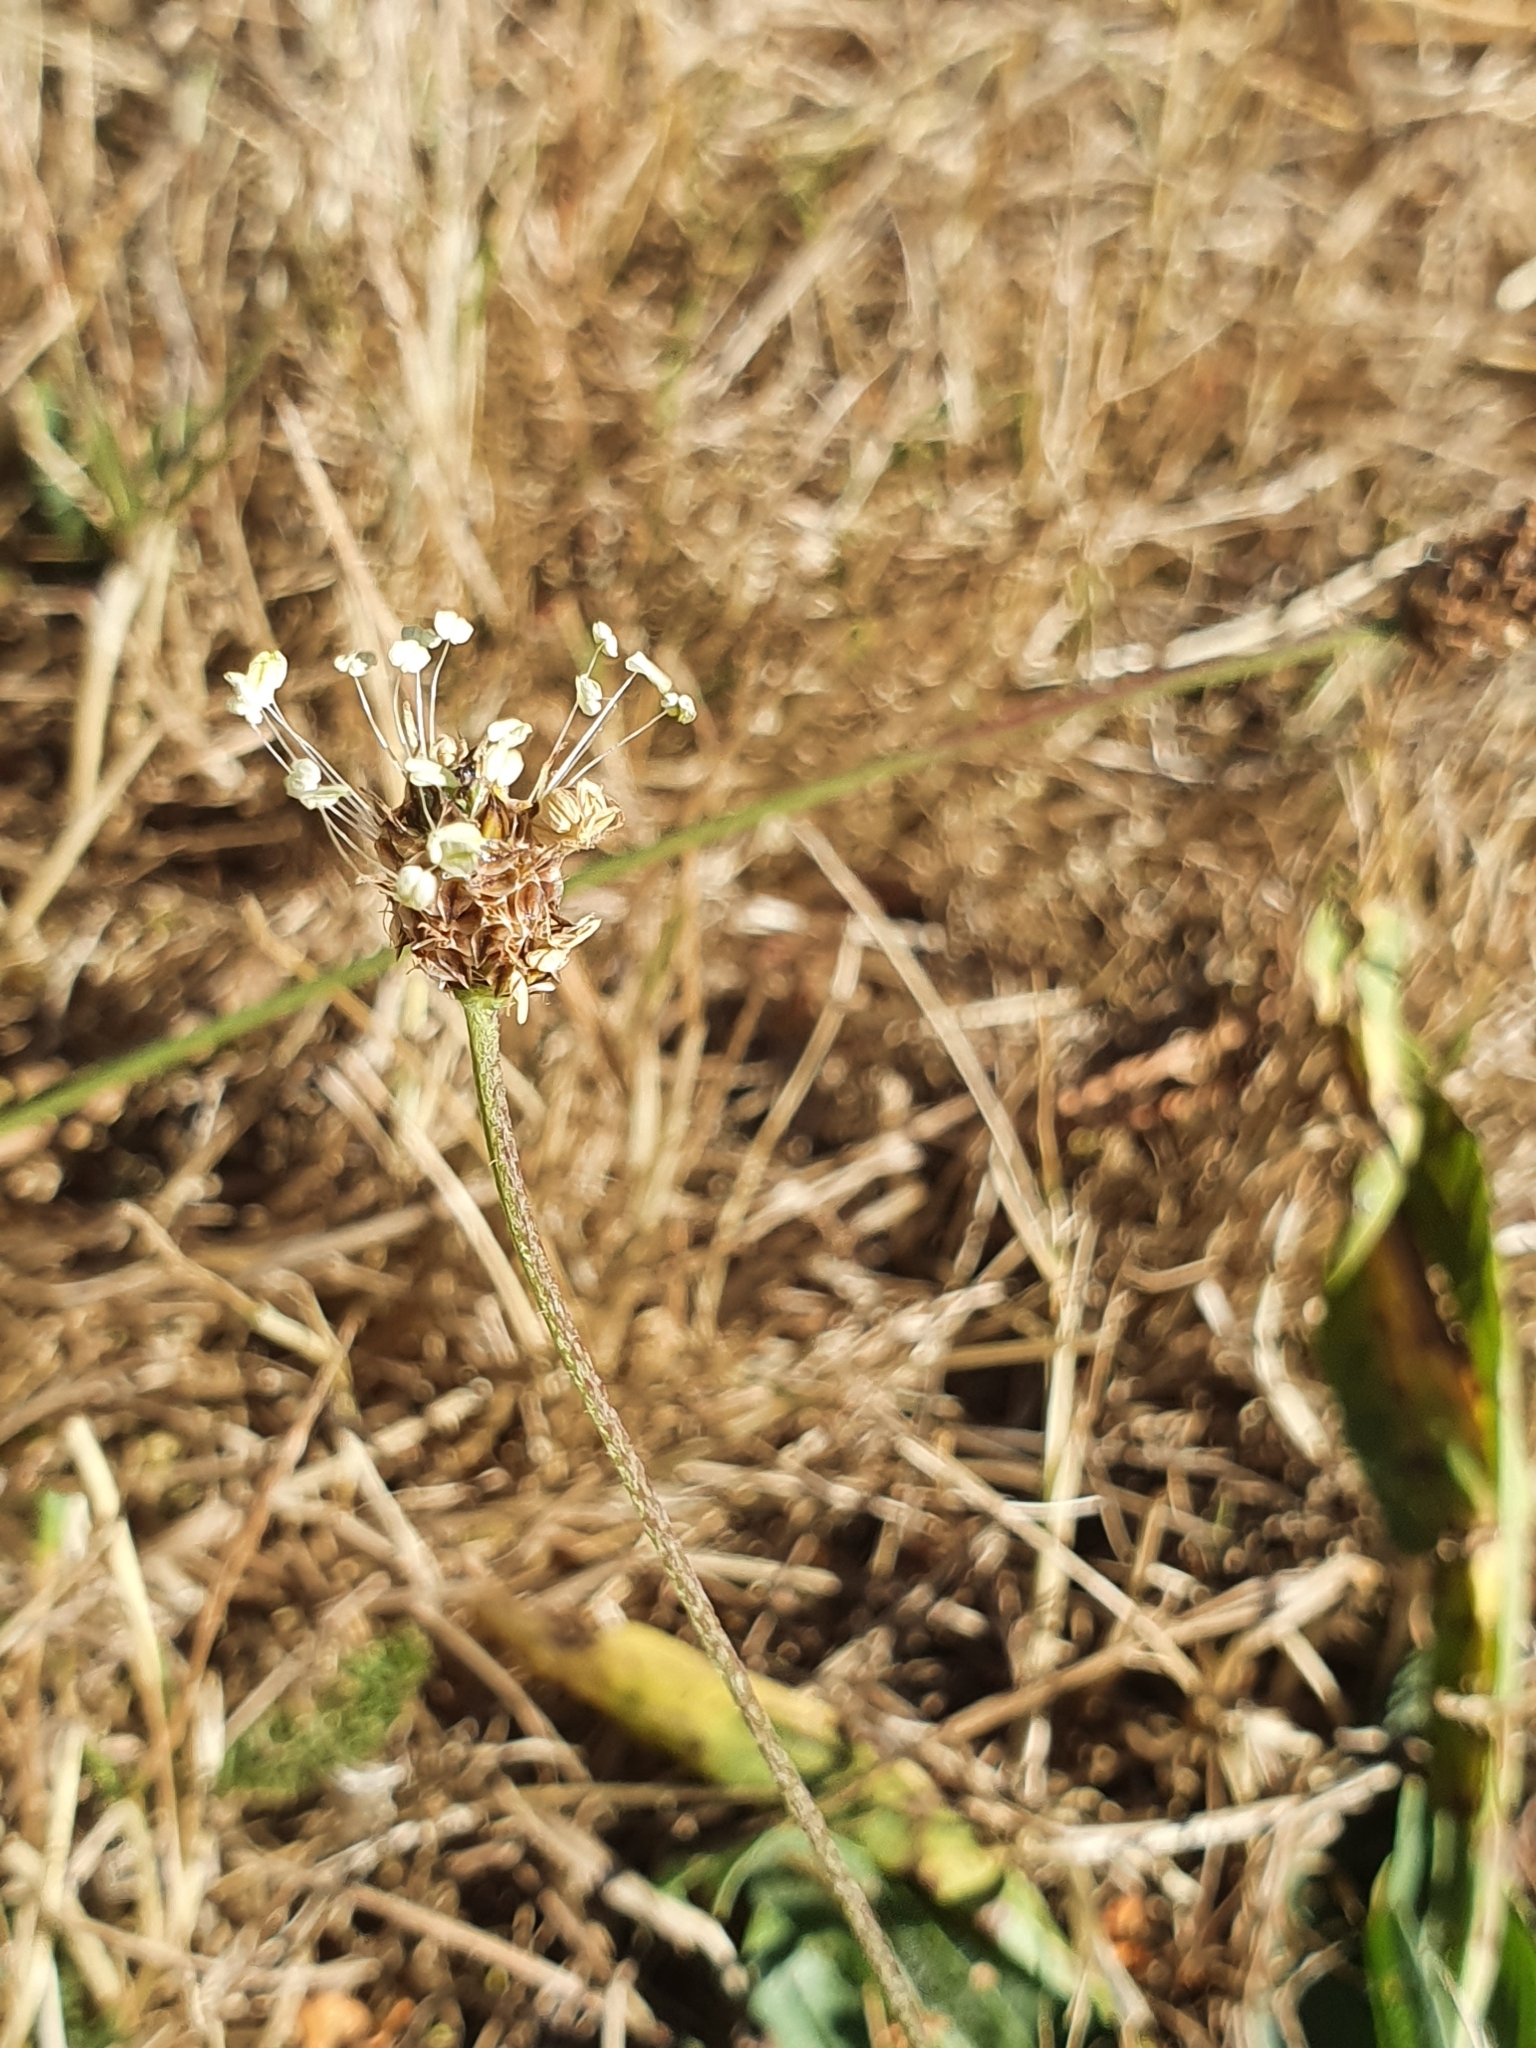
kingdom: Plantae
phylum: Tracheophyta
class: Magnoliopsida
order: Lamiales
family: Plantaginaceae
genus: Plantago
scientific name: Plantago lanceolata
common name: Ribwort plantain
